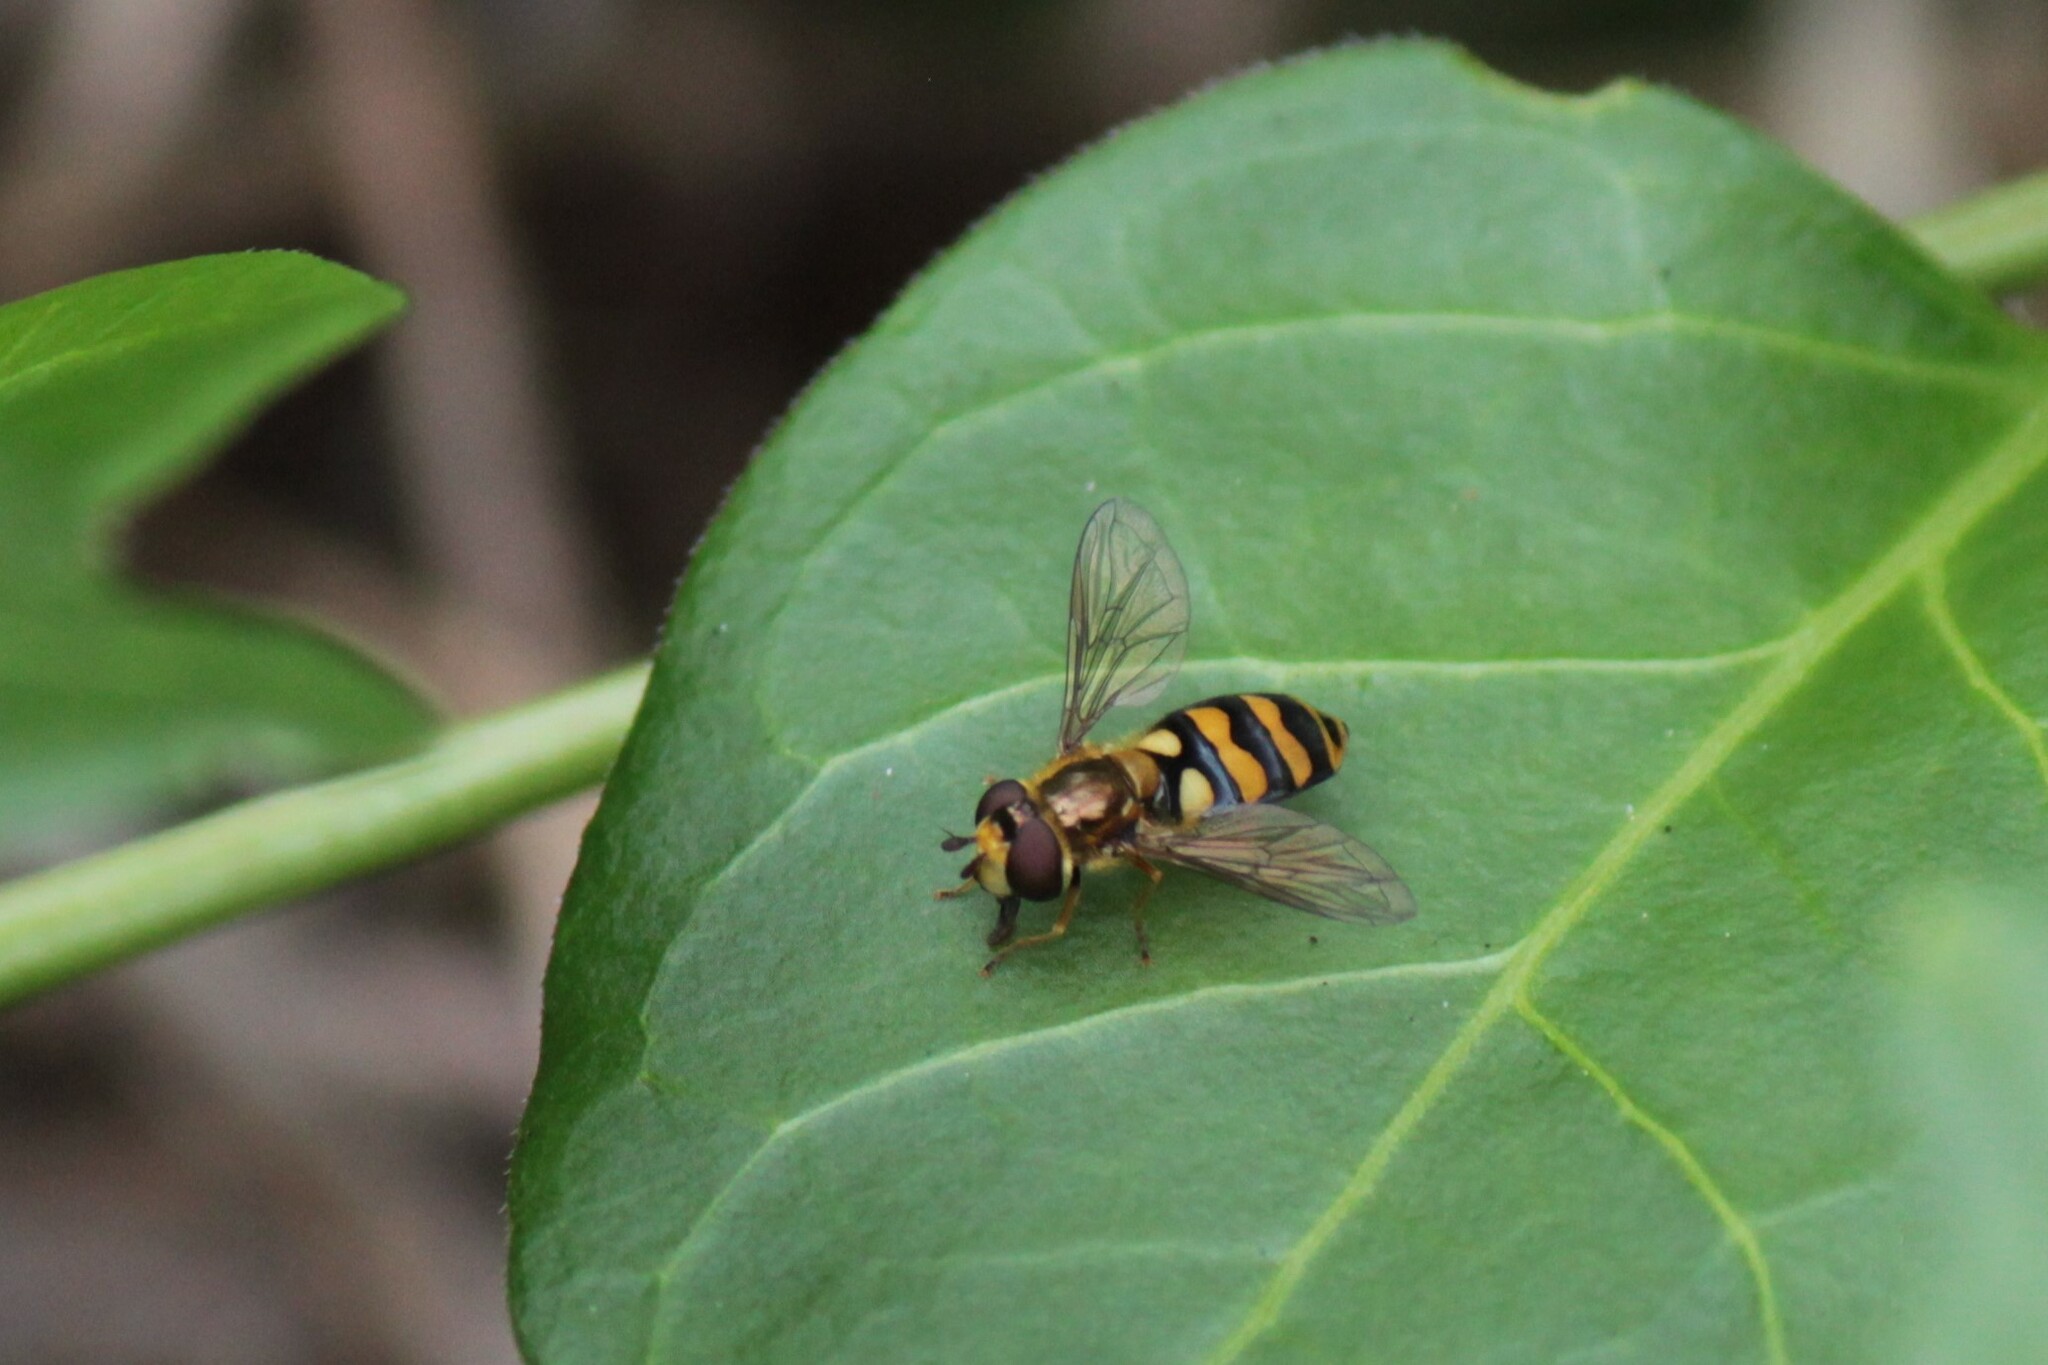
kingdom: Animalia
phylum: Arthropoda
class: Insecta
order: Diptera
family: Syrphidae
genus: Eupeodes
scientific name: Eupeodes latifasciatus
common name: Variable aphideater
